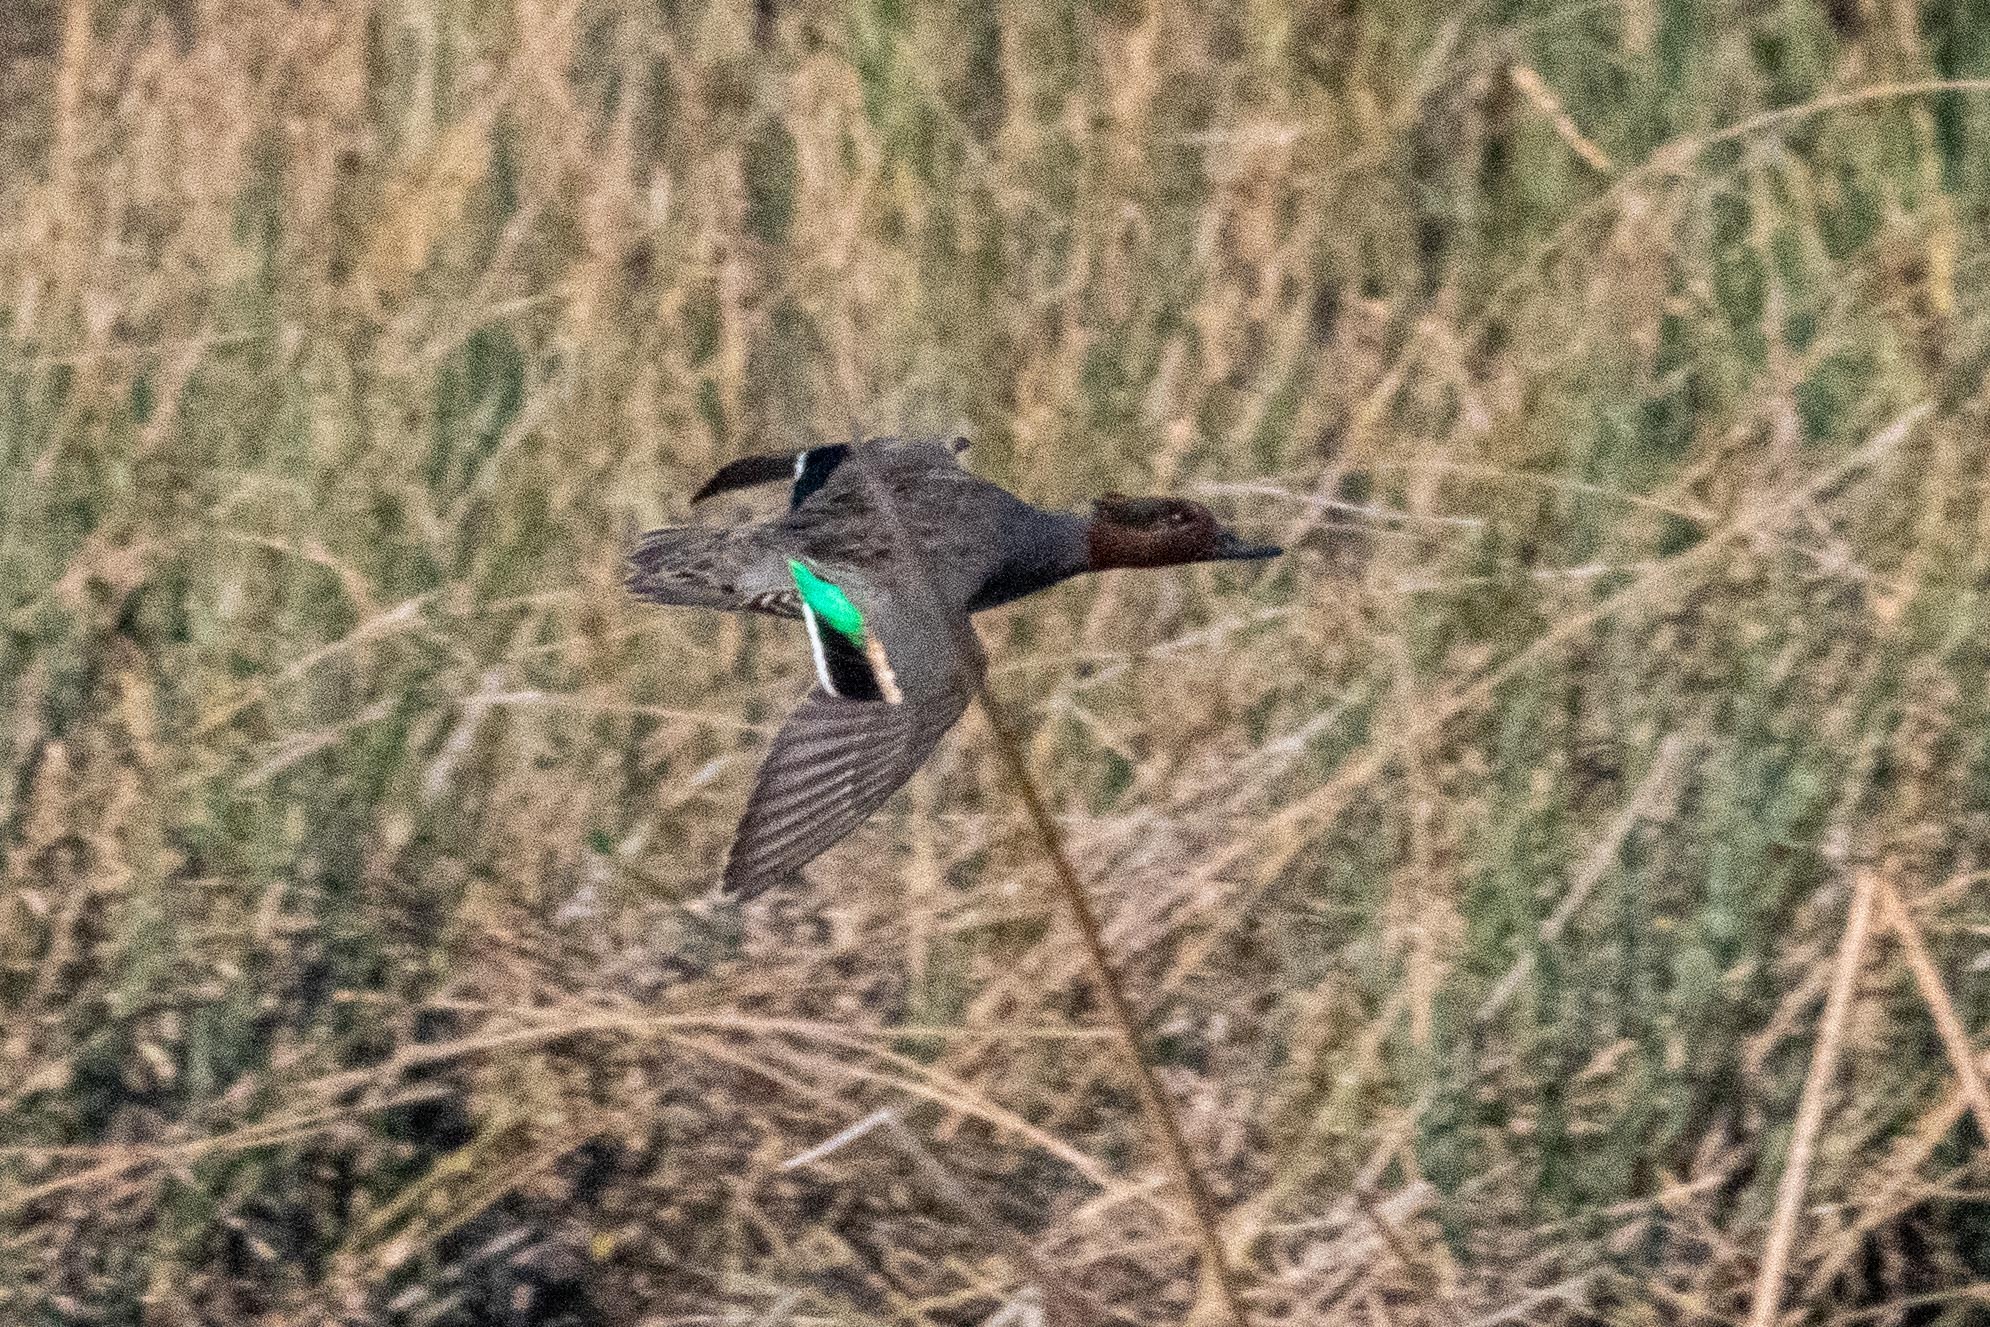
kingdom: Animalia
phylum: Chordata
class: Aves
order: Anseriformes
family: Anatidae
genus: Anas
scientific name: Anas crecca
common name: Eurasian teal
